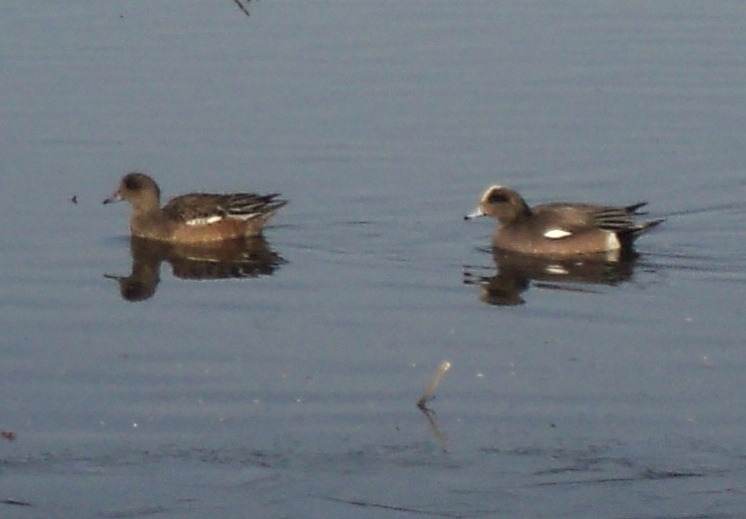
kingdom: Animalia
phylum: Chordata
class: Aves
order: Anseriformes
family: Anatidae
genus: Mareca
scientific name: Mareca americana
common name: American wigeon
